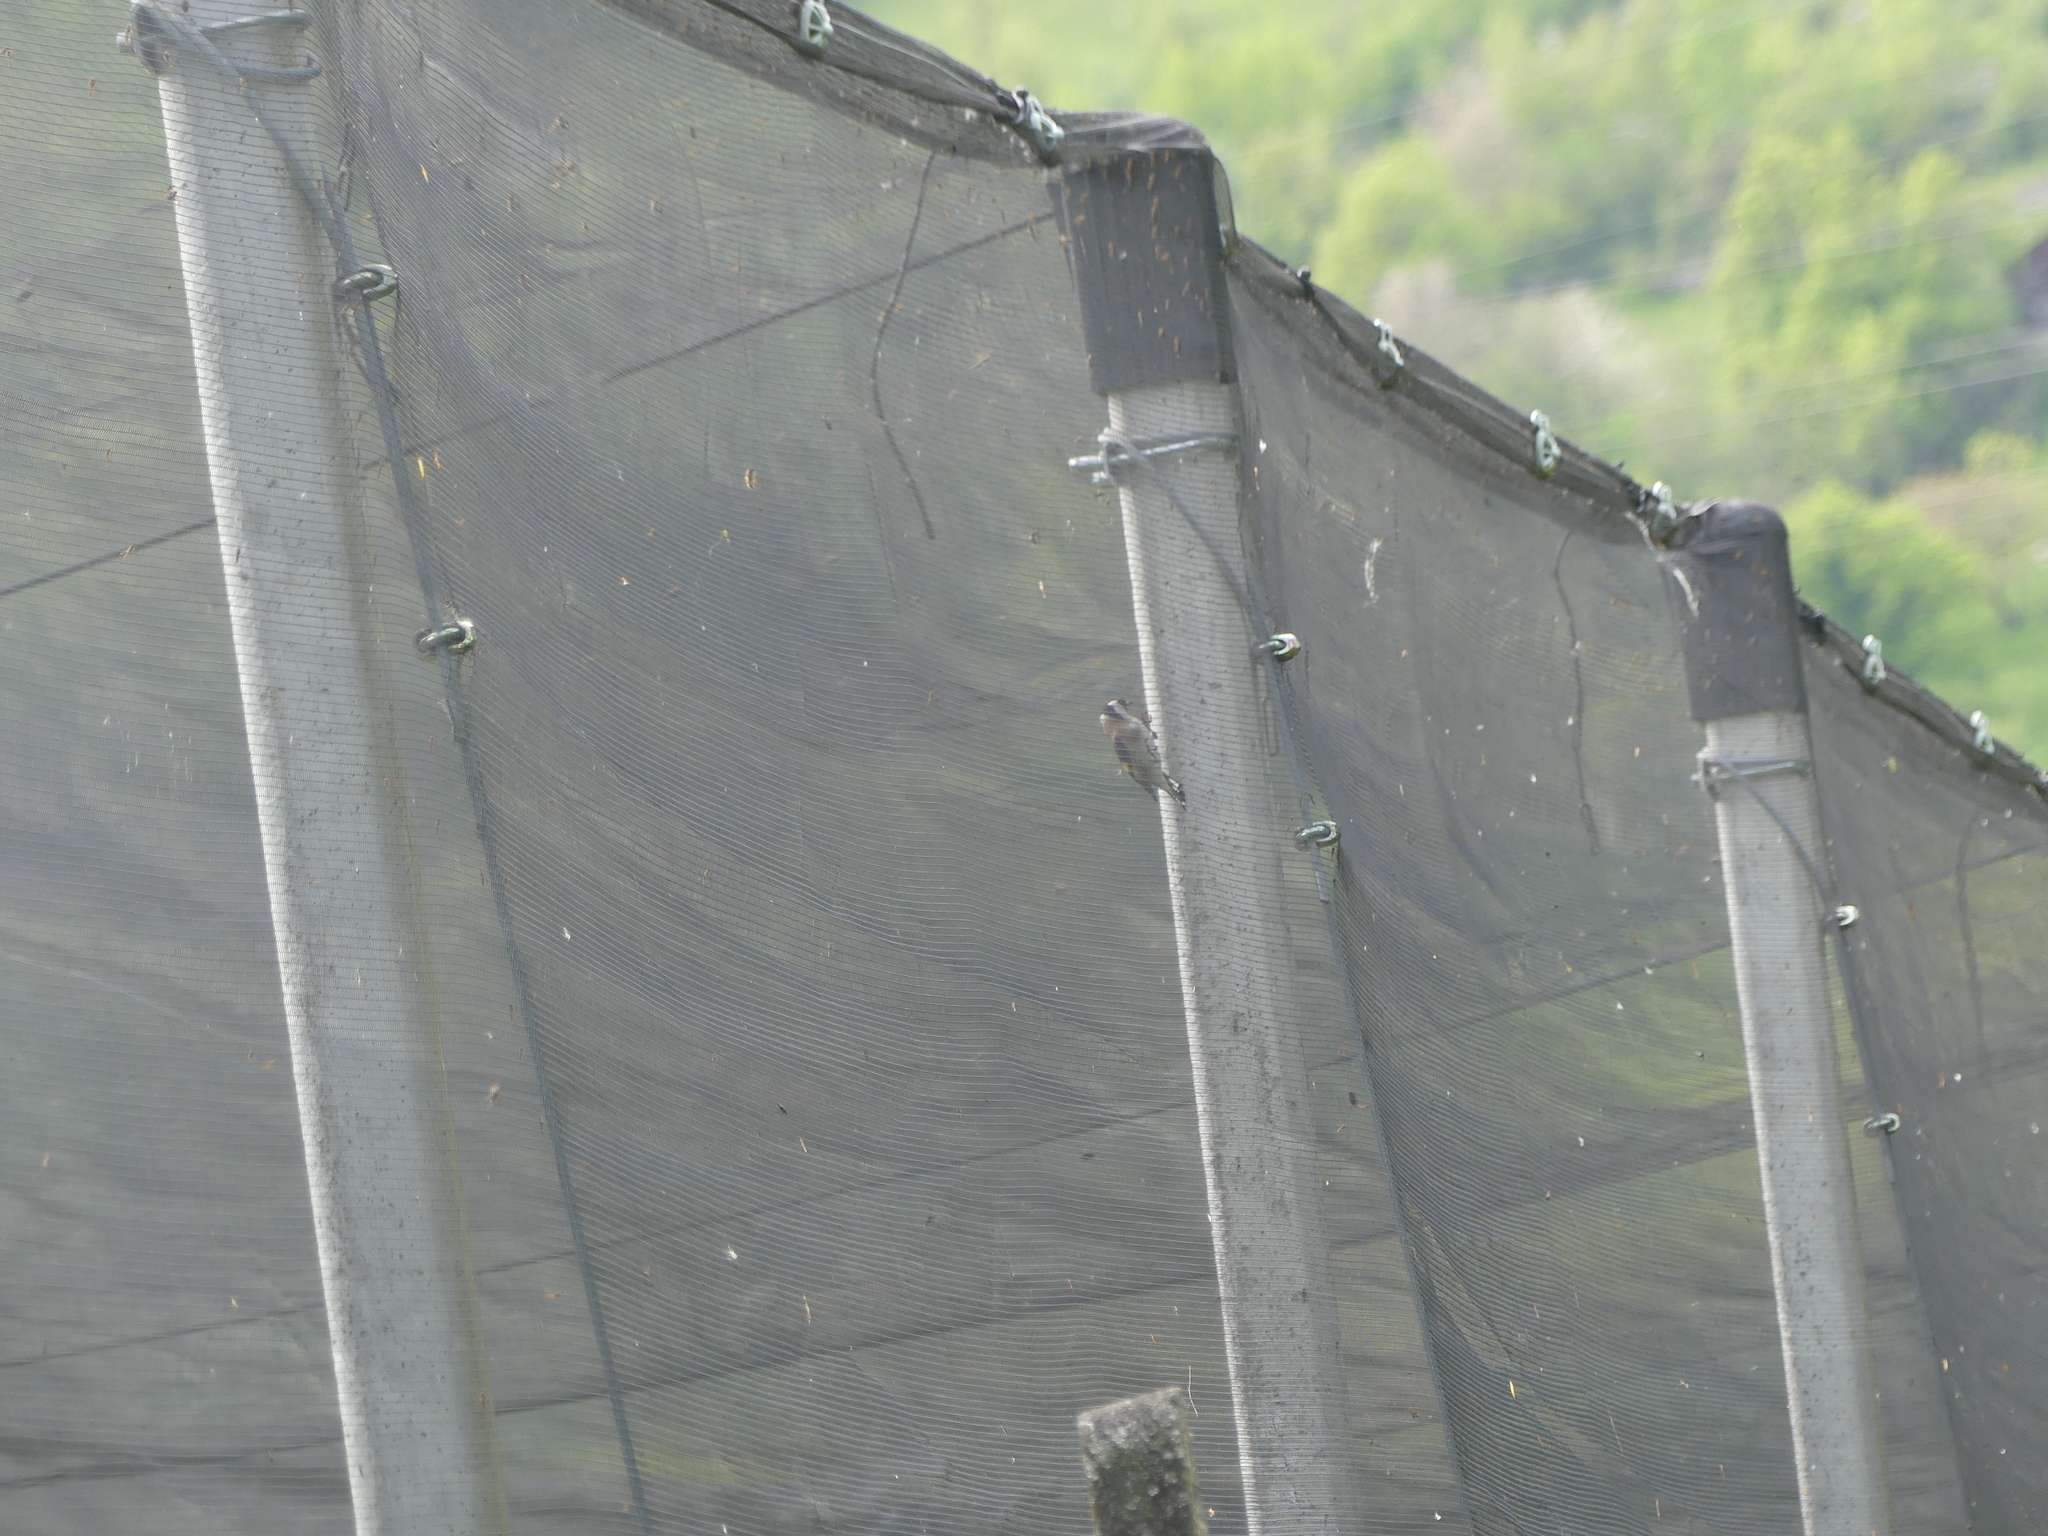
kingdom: Animalia
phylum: Chordata
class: Aves
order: Passeriformes
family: Fringillidae
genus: Carduelis
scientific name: Carduelis carduelis
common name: European goldfinch
